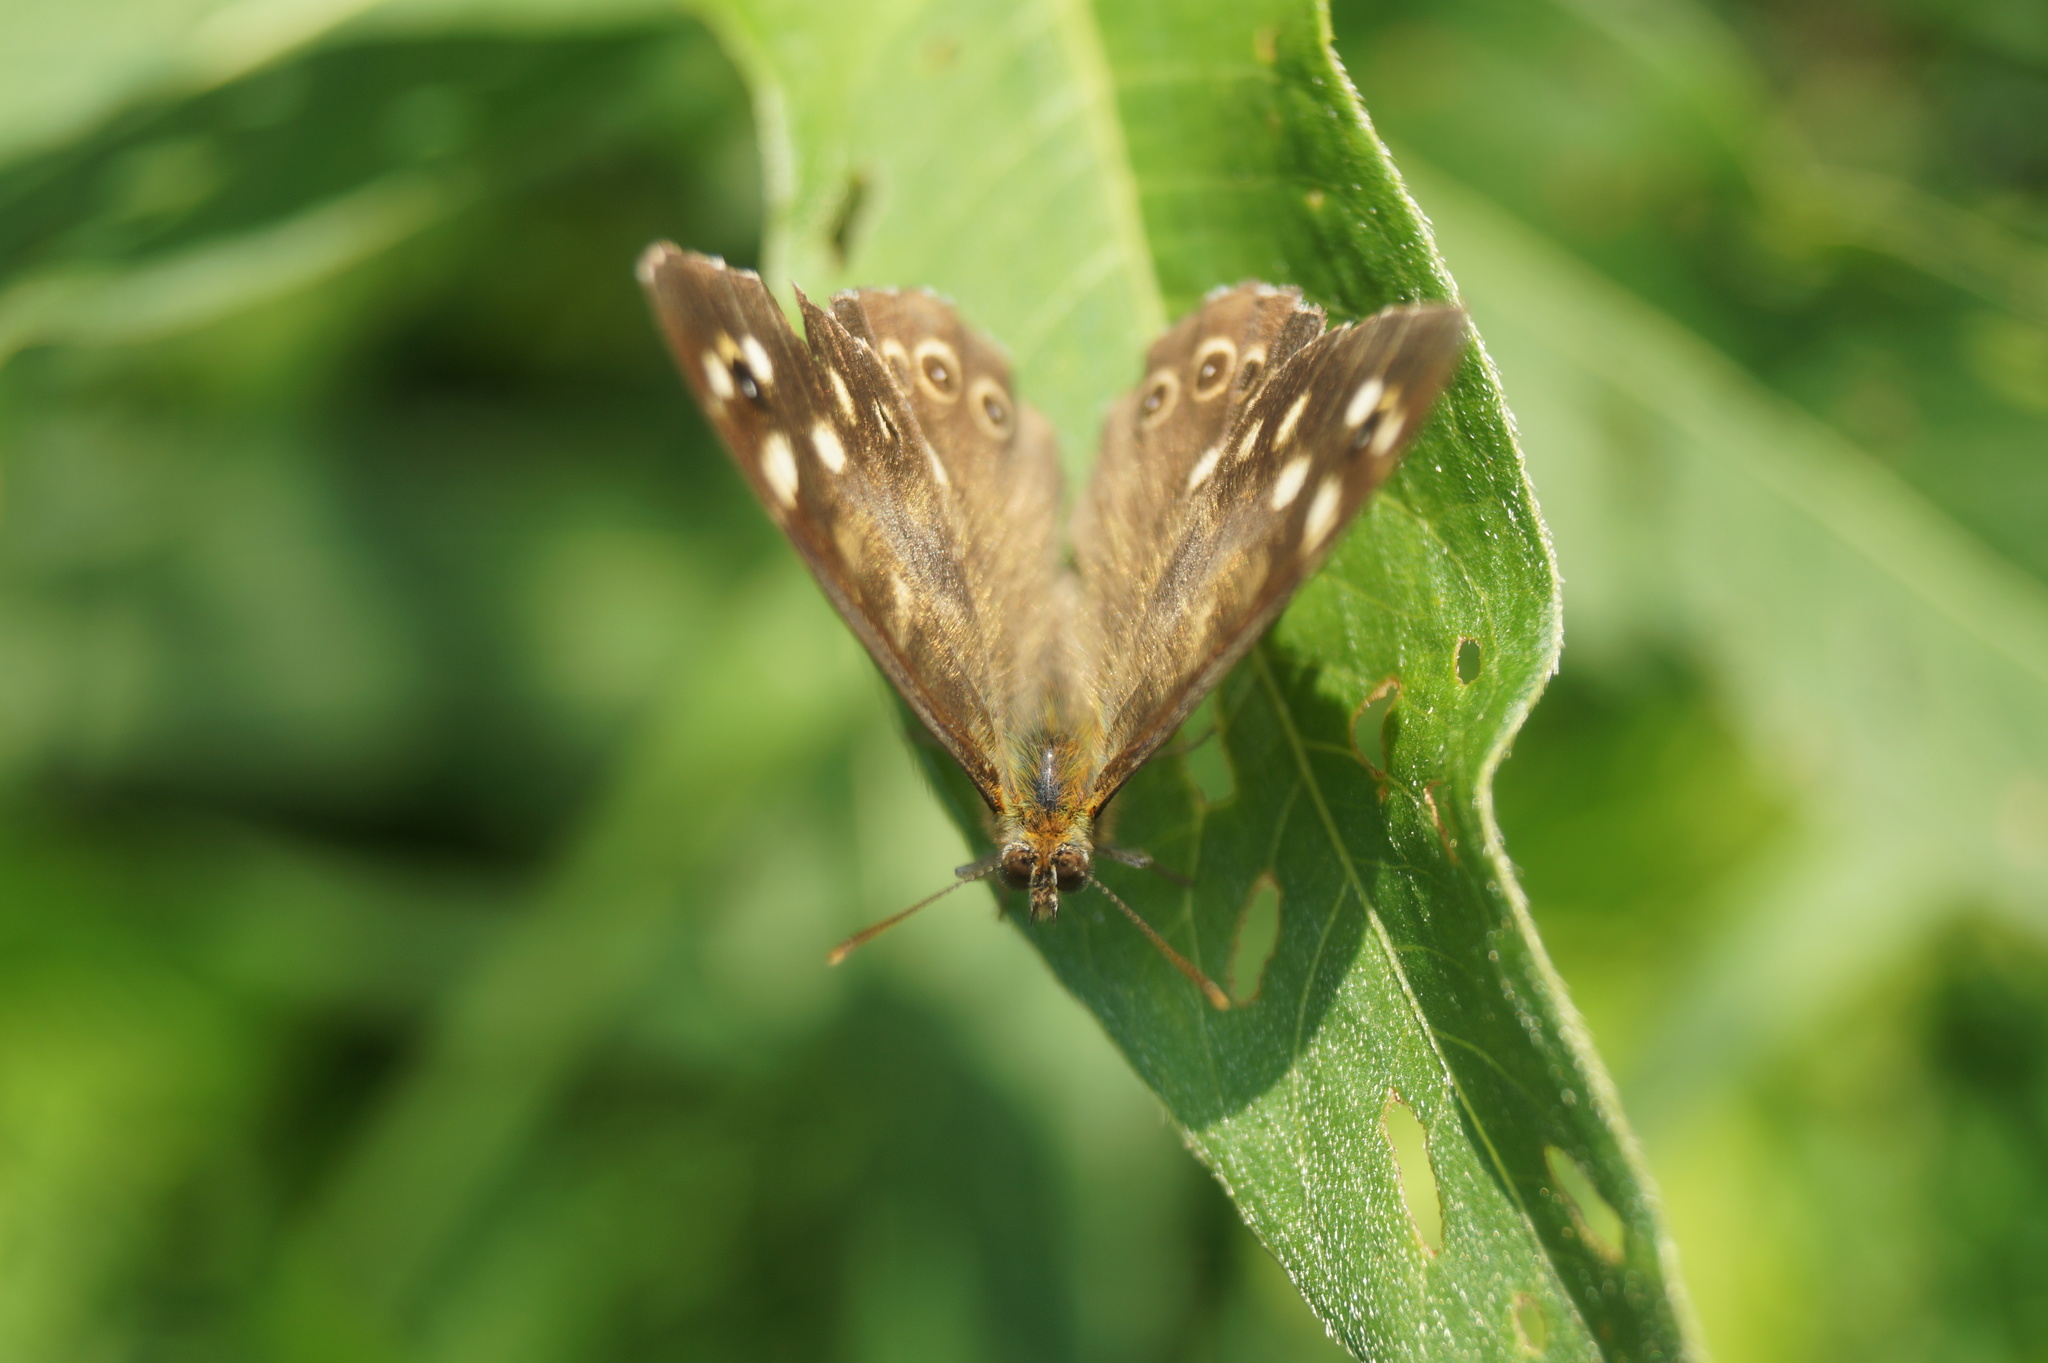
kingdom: Animalia
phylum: Arthropoda
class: Insecta
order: Lepidoptera
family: Nymphalidae
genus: Pararge
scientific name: Pararge aegeria
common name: Speckled wood
